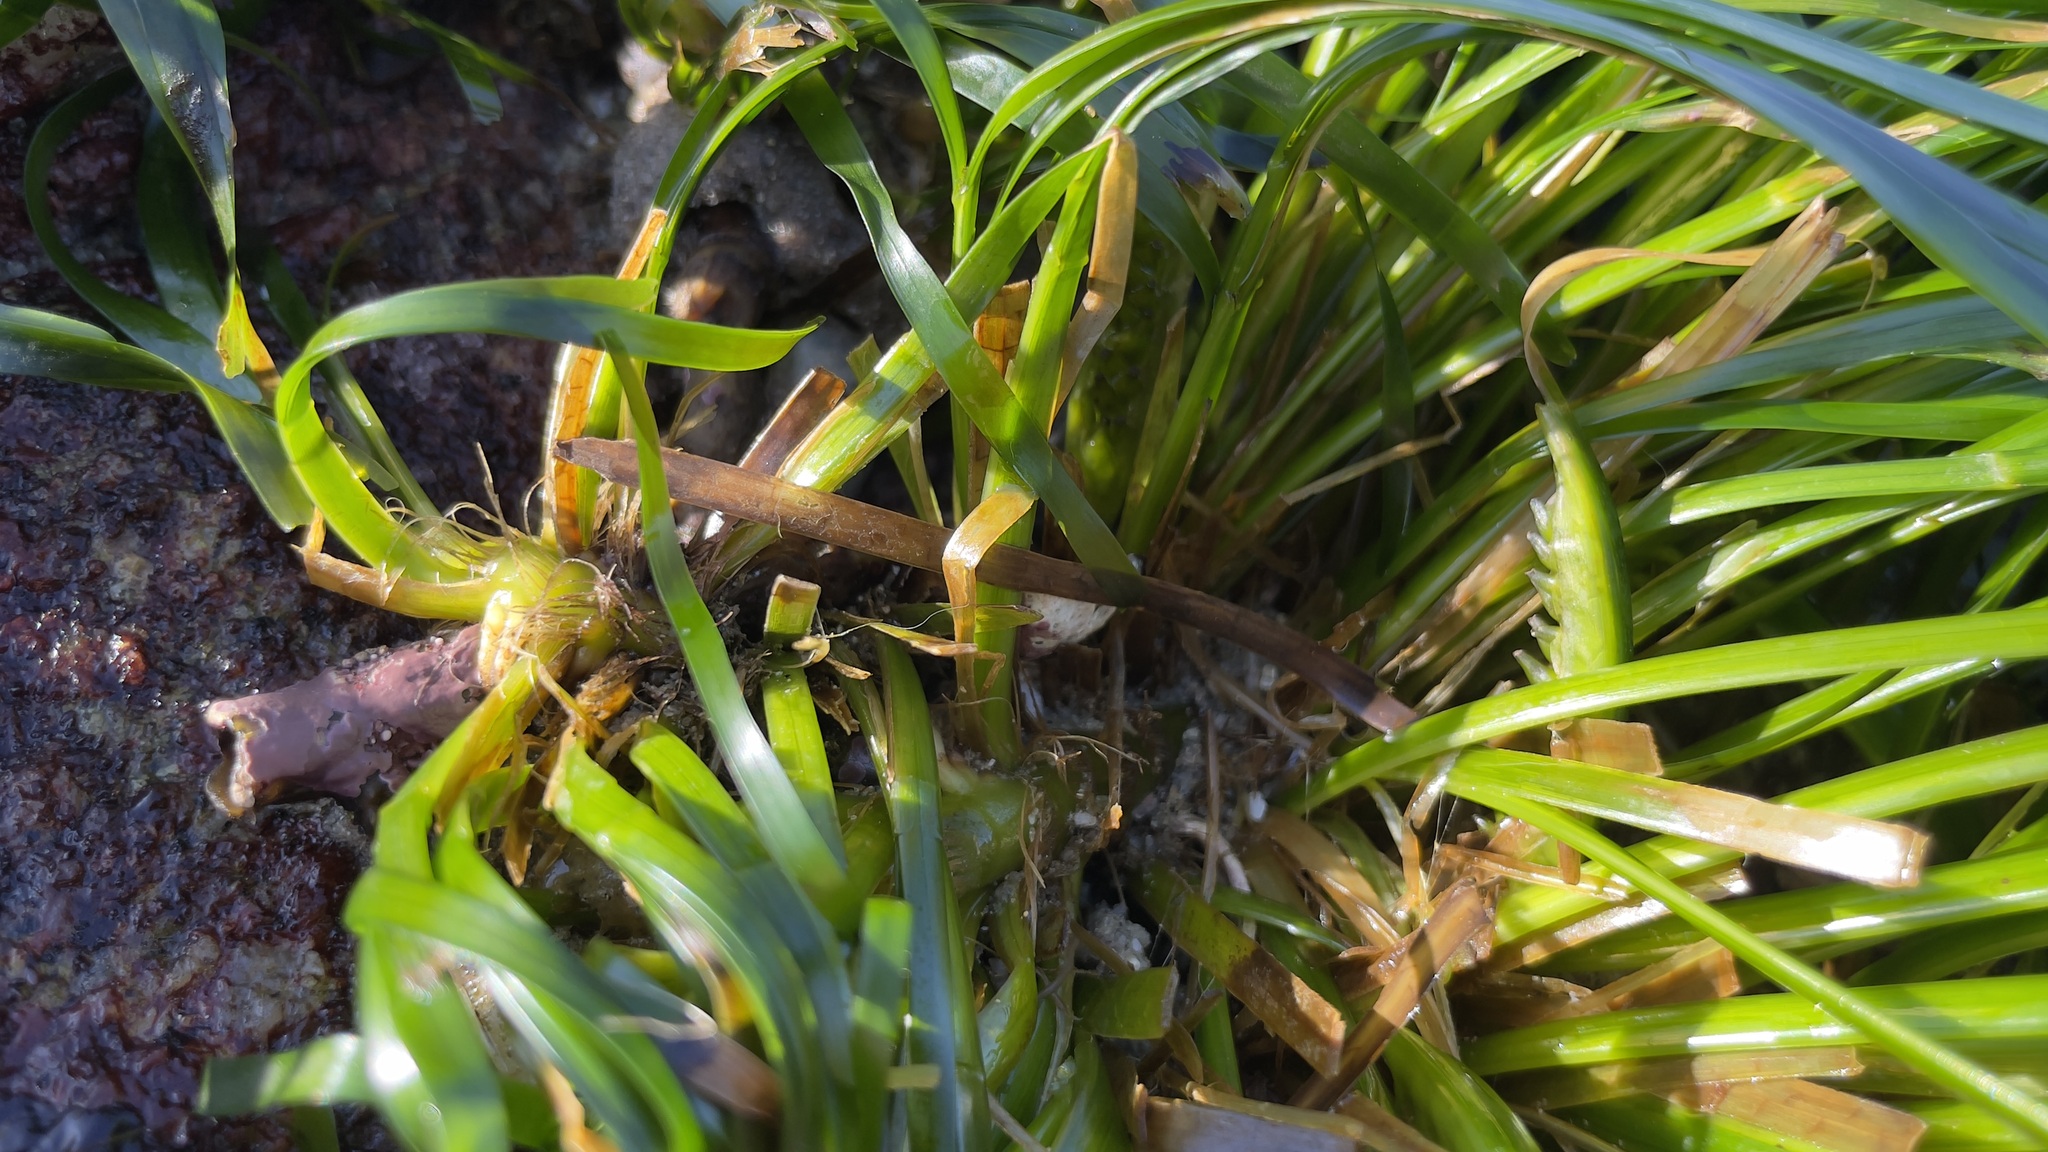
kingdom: Plantae
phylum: Tracheophyta
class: Liliopsida
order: Alismatales
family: Zosteraceae
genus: Phyllospadix
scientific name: Phyllospadix scouleri
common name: Species code: ps
